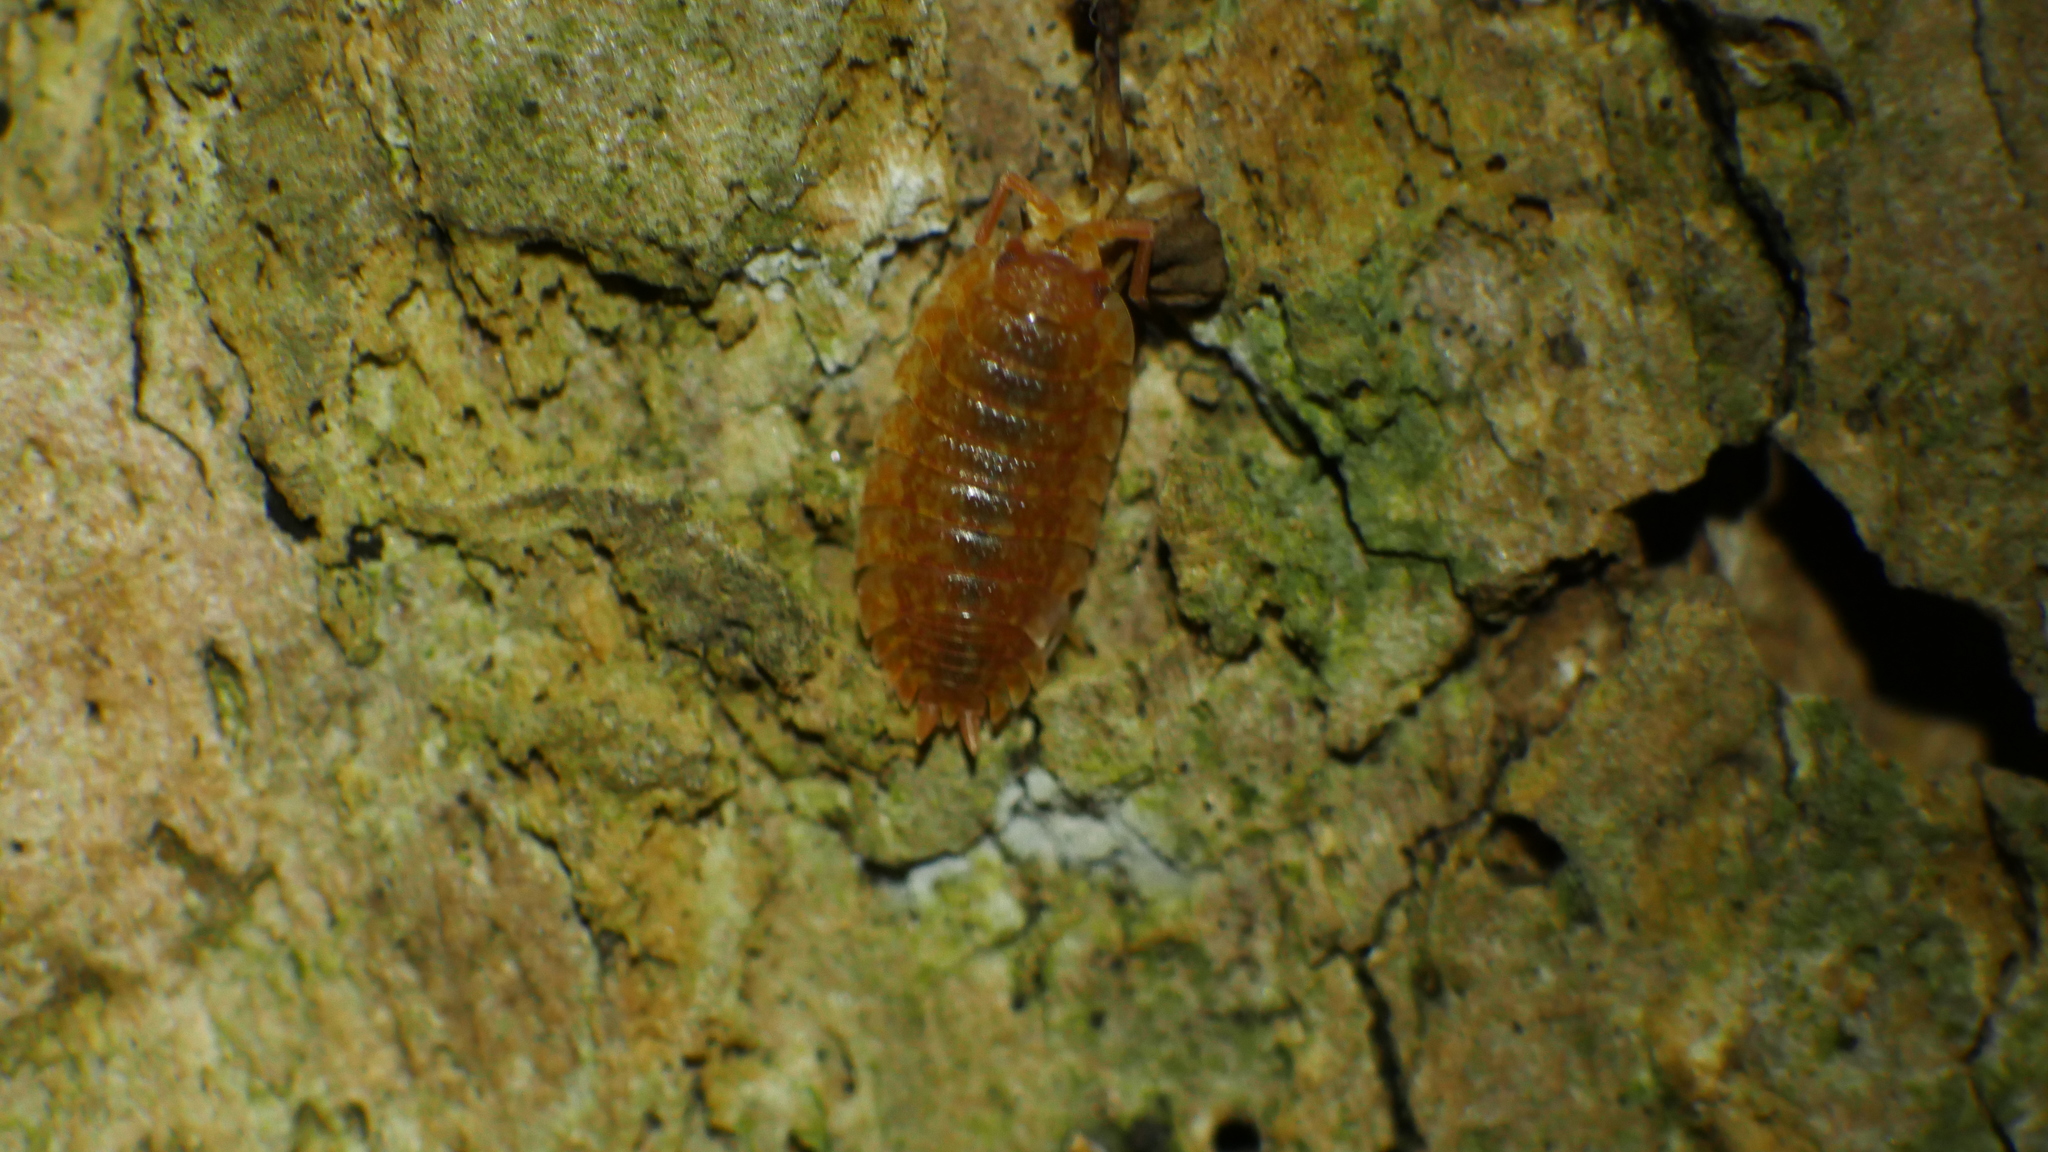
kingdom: Animalia
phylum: Arthropoda
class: Malacostraca
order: Isopoda
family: Porcellionidae
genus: Porcellio
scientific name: Porcellio scaber
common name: Common rough woodlouse
